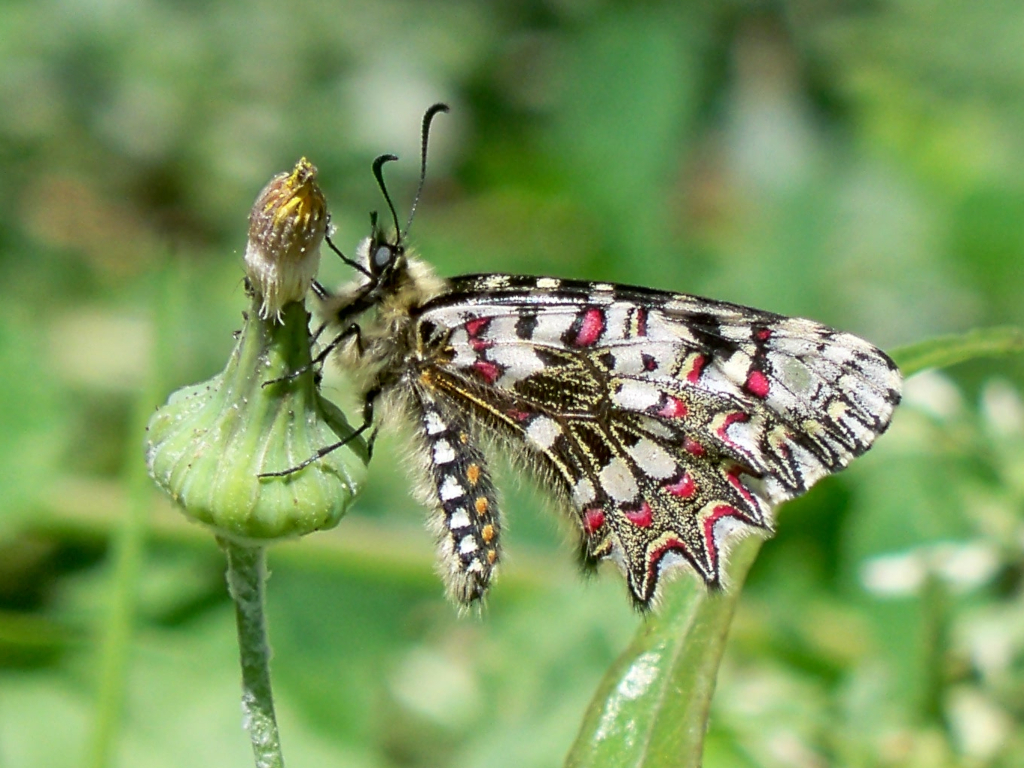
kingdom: Animalia
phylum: Arthropoda
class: Insecta
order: Lepidoptera
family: Papilionidae
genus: Zerynthia
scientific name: Zerynthia rumina
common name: Spanish festoon
